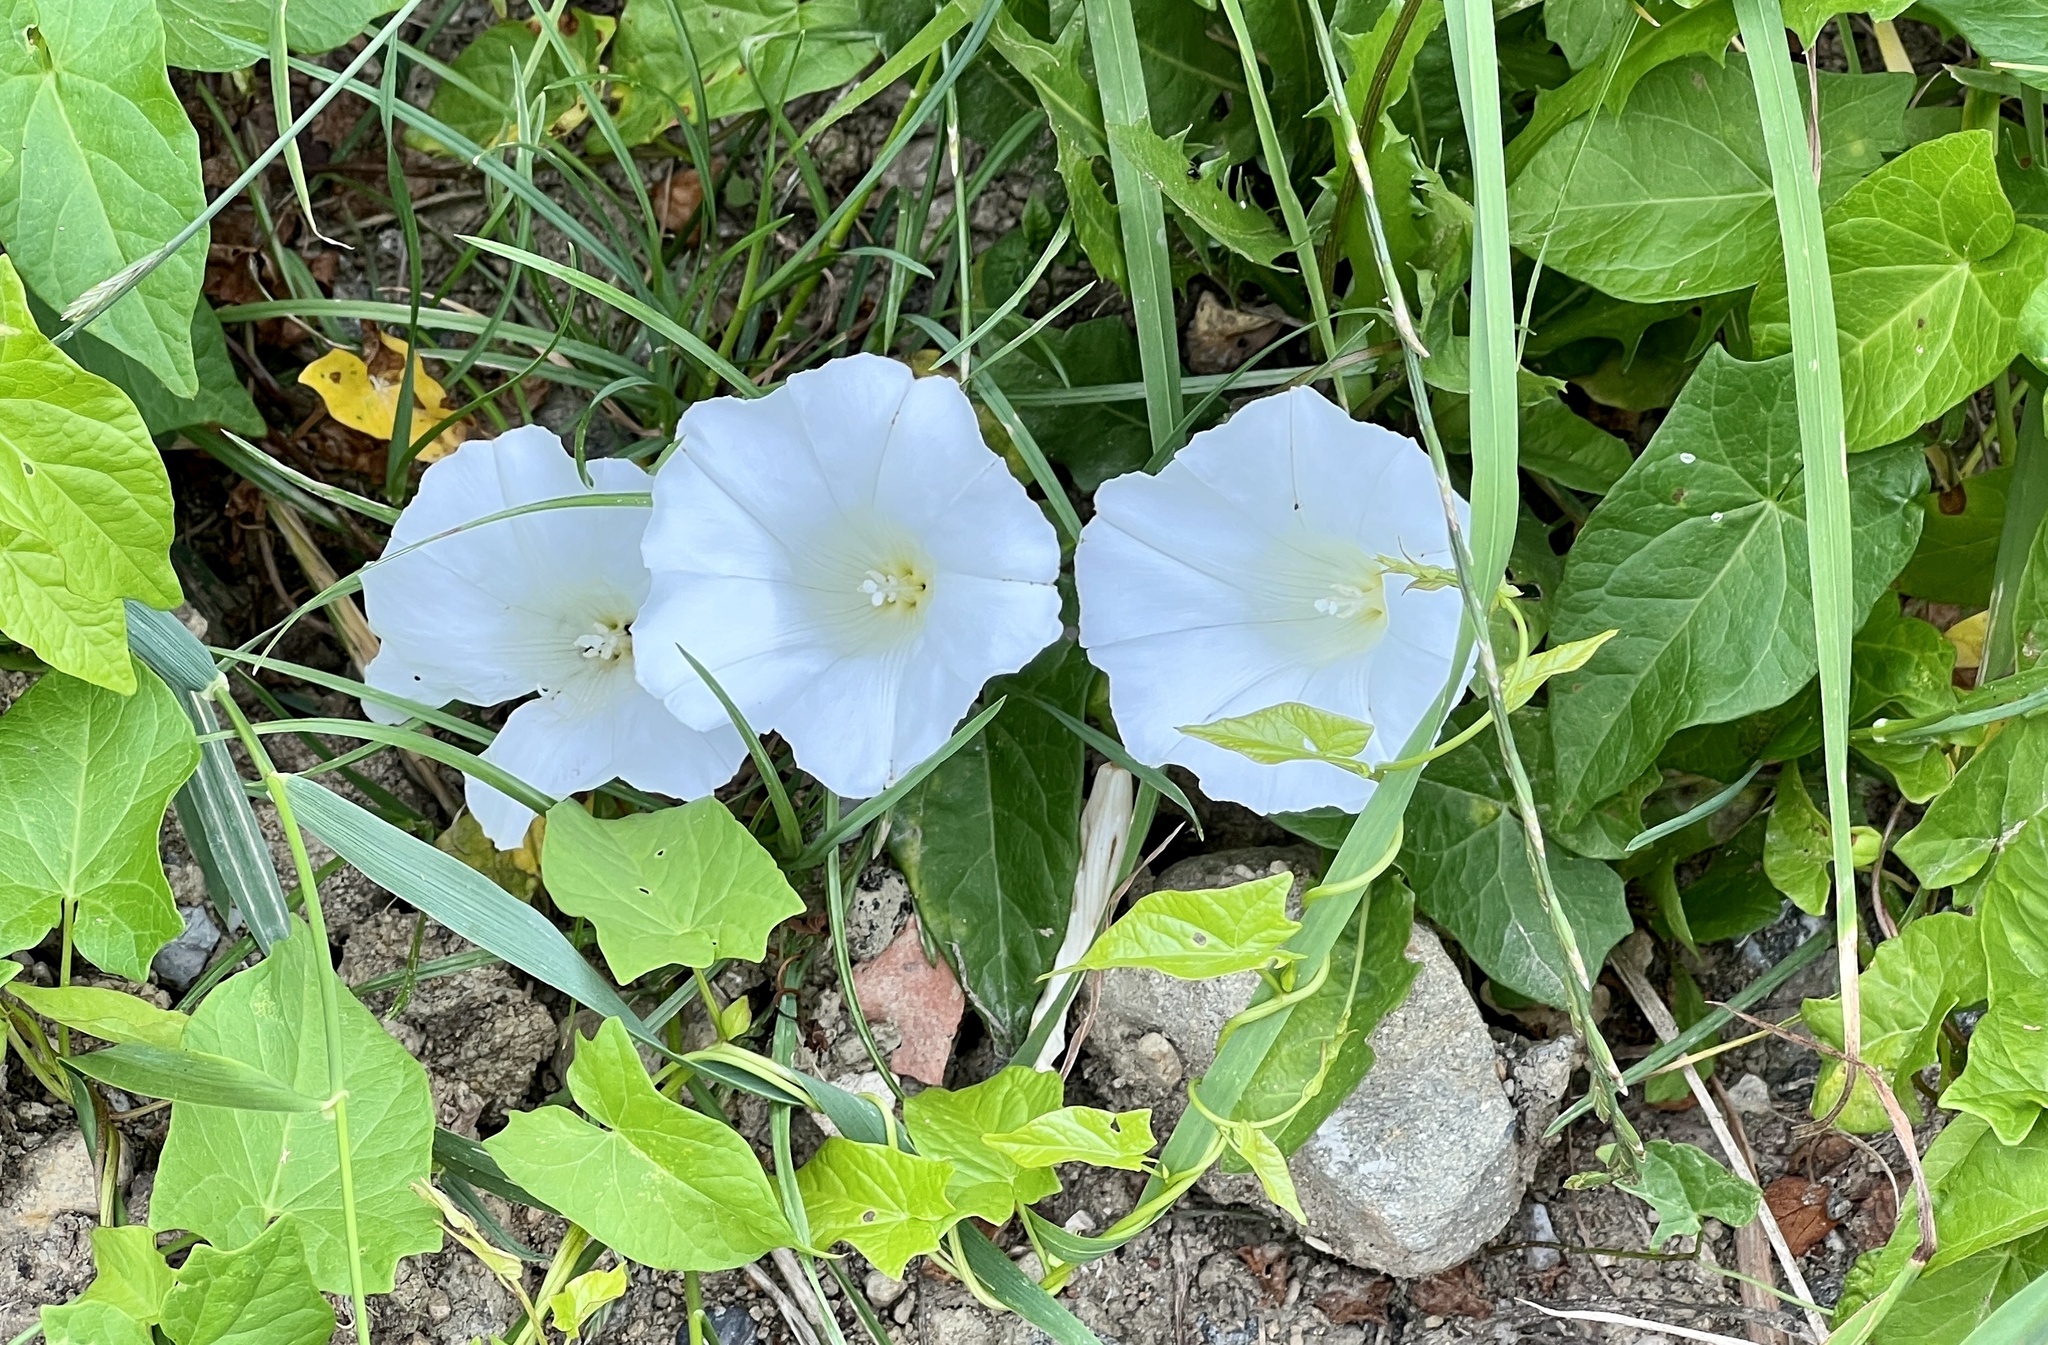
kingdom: Plantae
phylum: Tracheophyta
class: Magnoliopsida
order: Solanales
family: Convolvulaceae
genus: Calystegia
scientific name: Calystegia sepium
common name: Hedge bindweed
